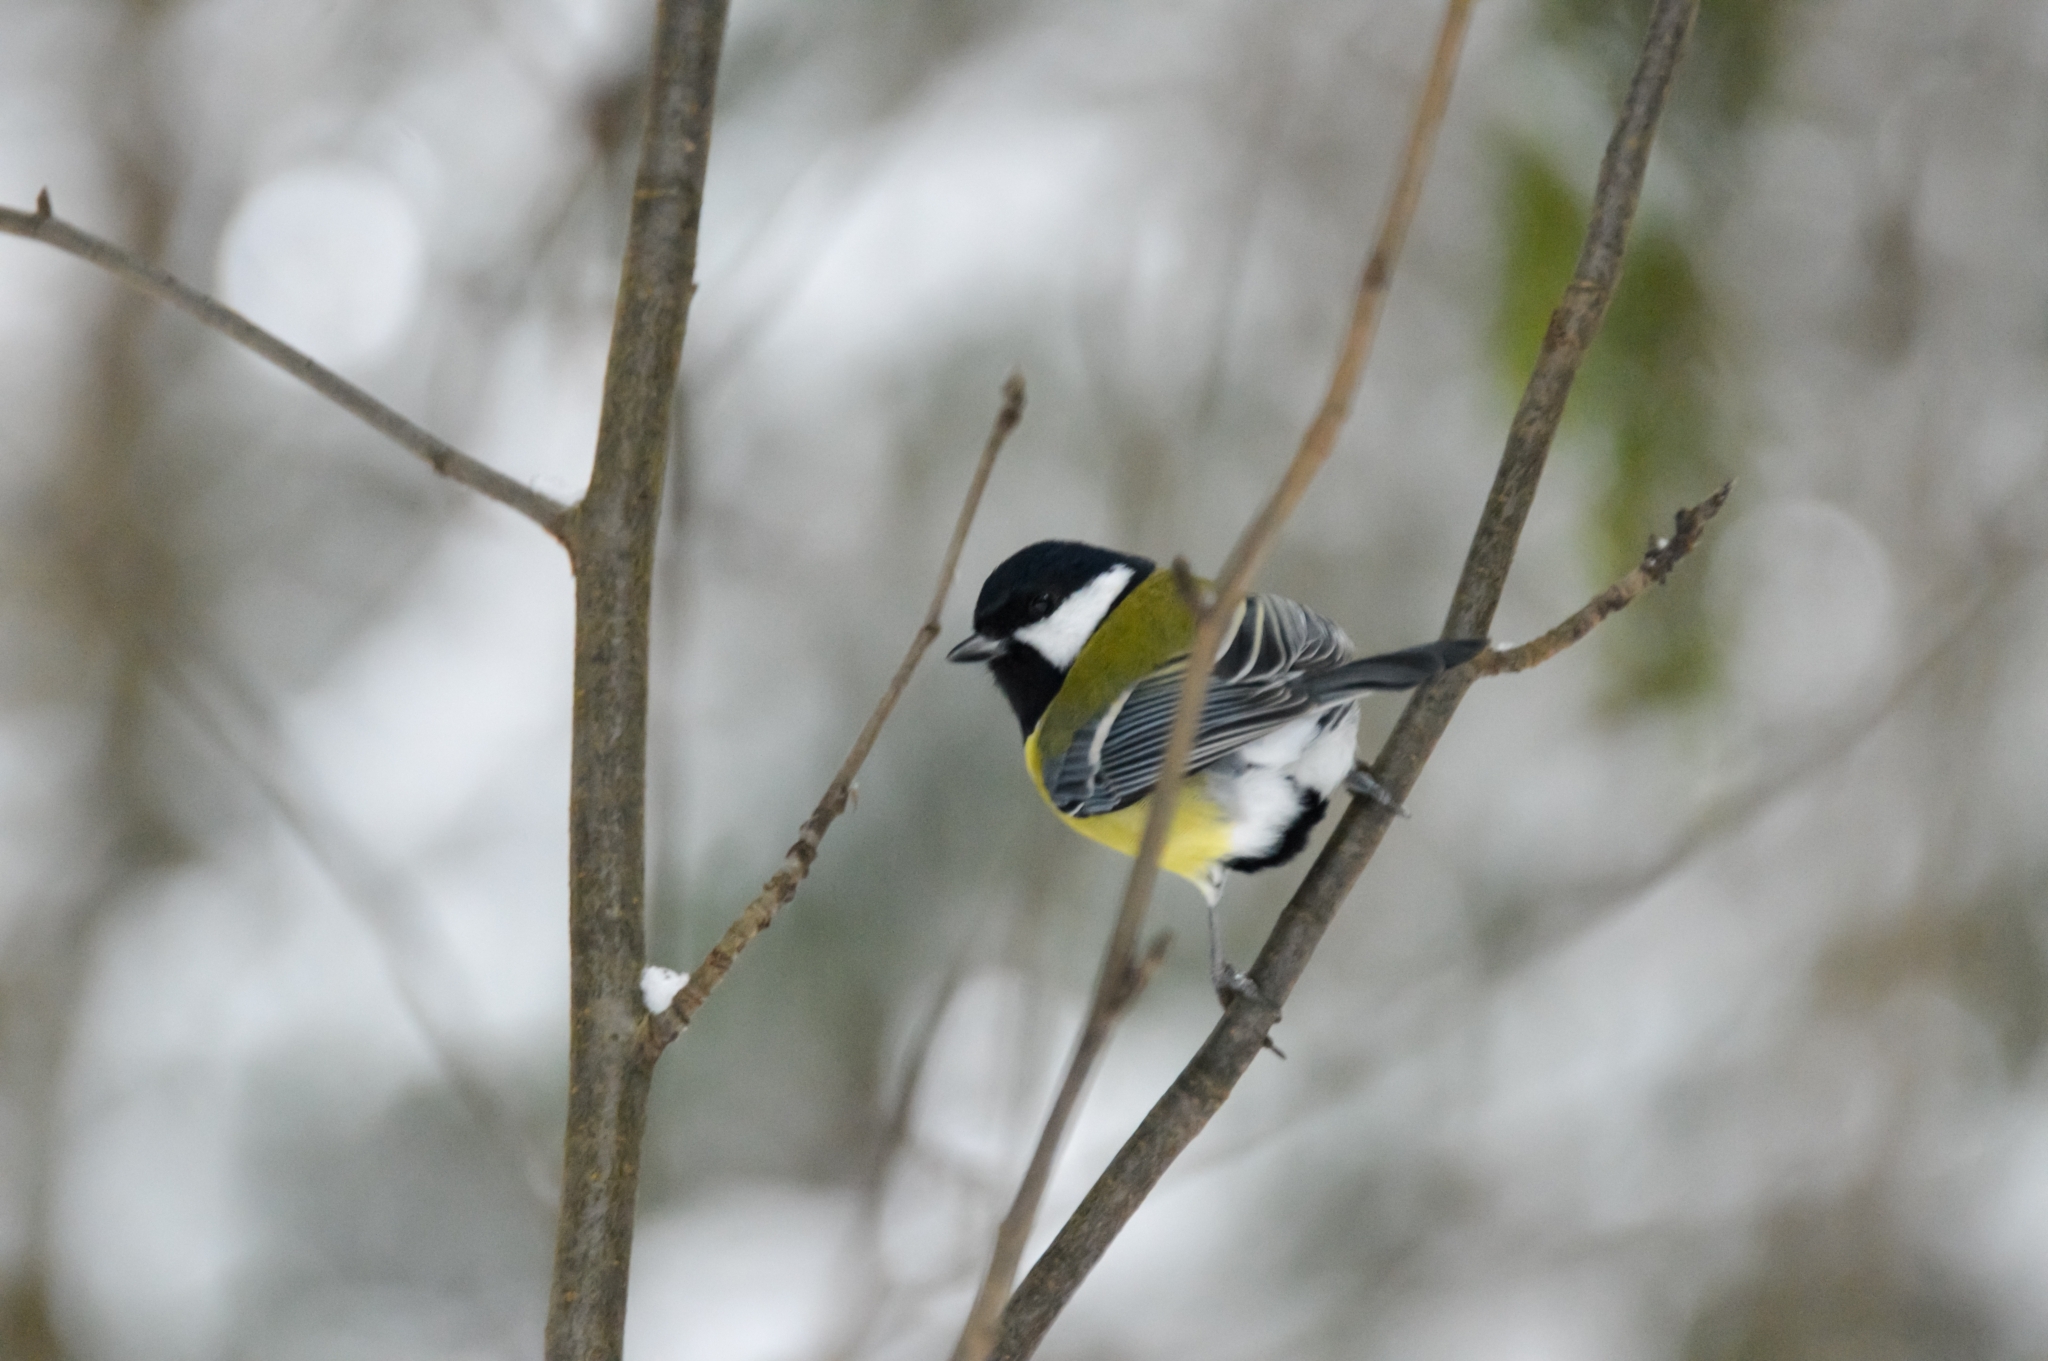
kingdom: Animalia
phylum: Chordata
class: Aves
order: Passeriformes
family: Paridae
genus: Parus
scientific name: Parus major
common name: Great tit
